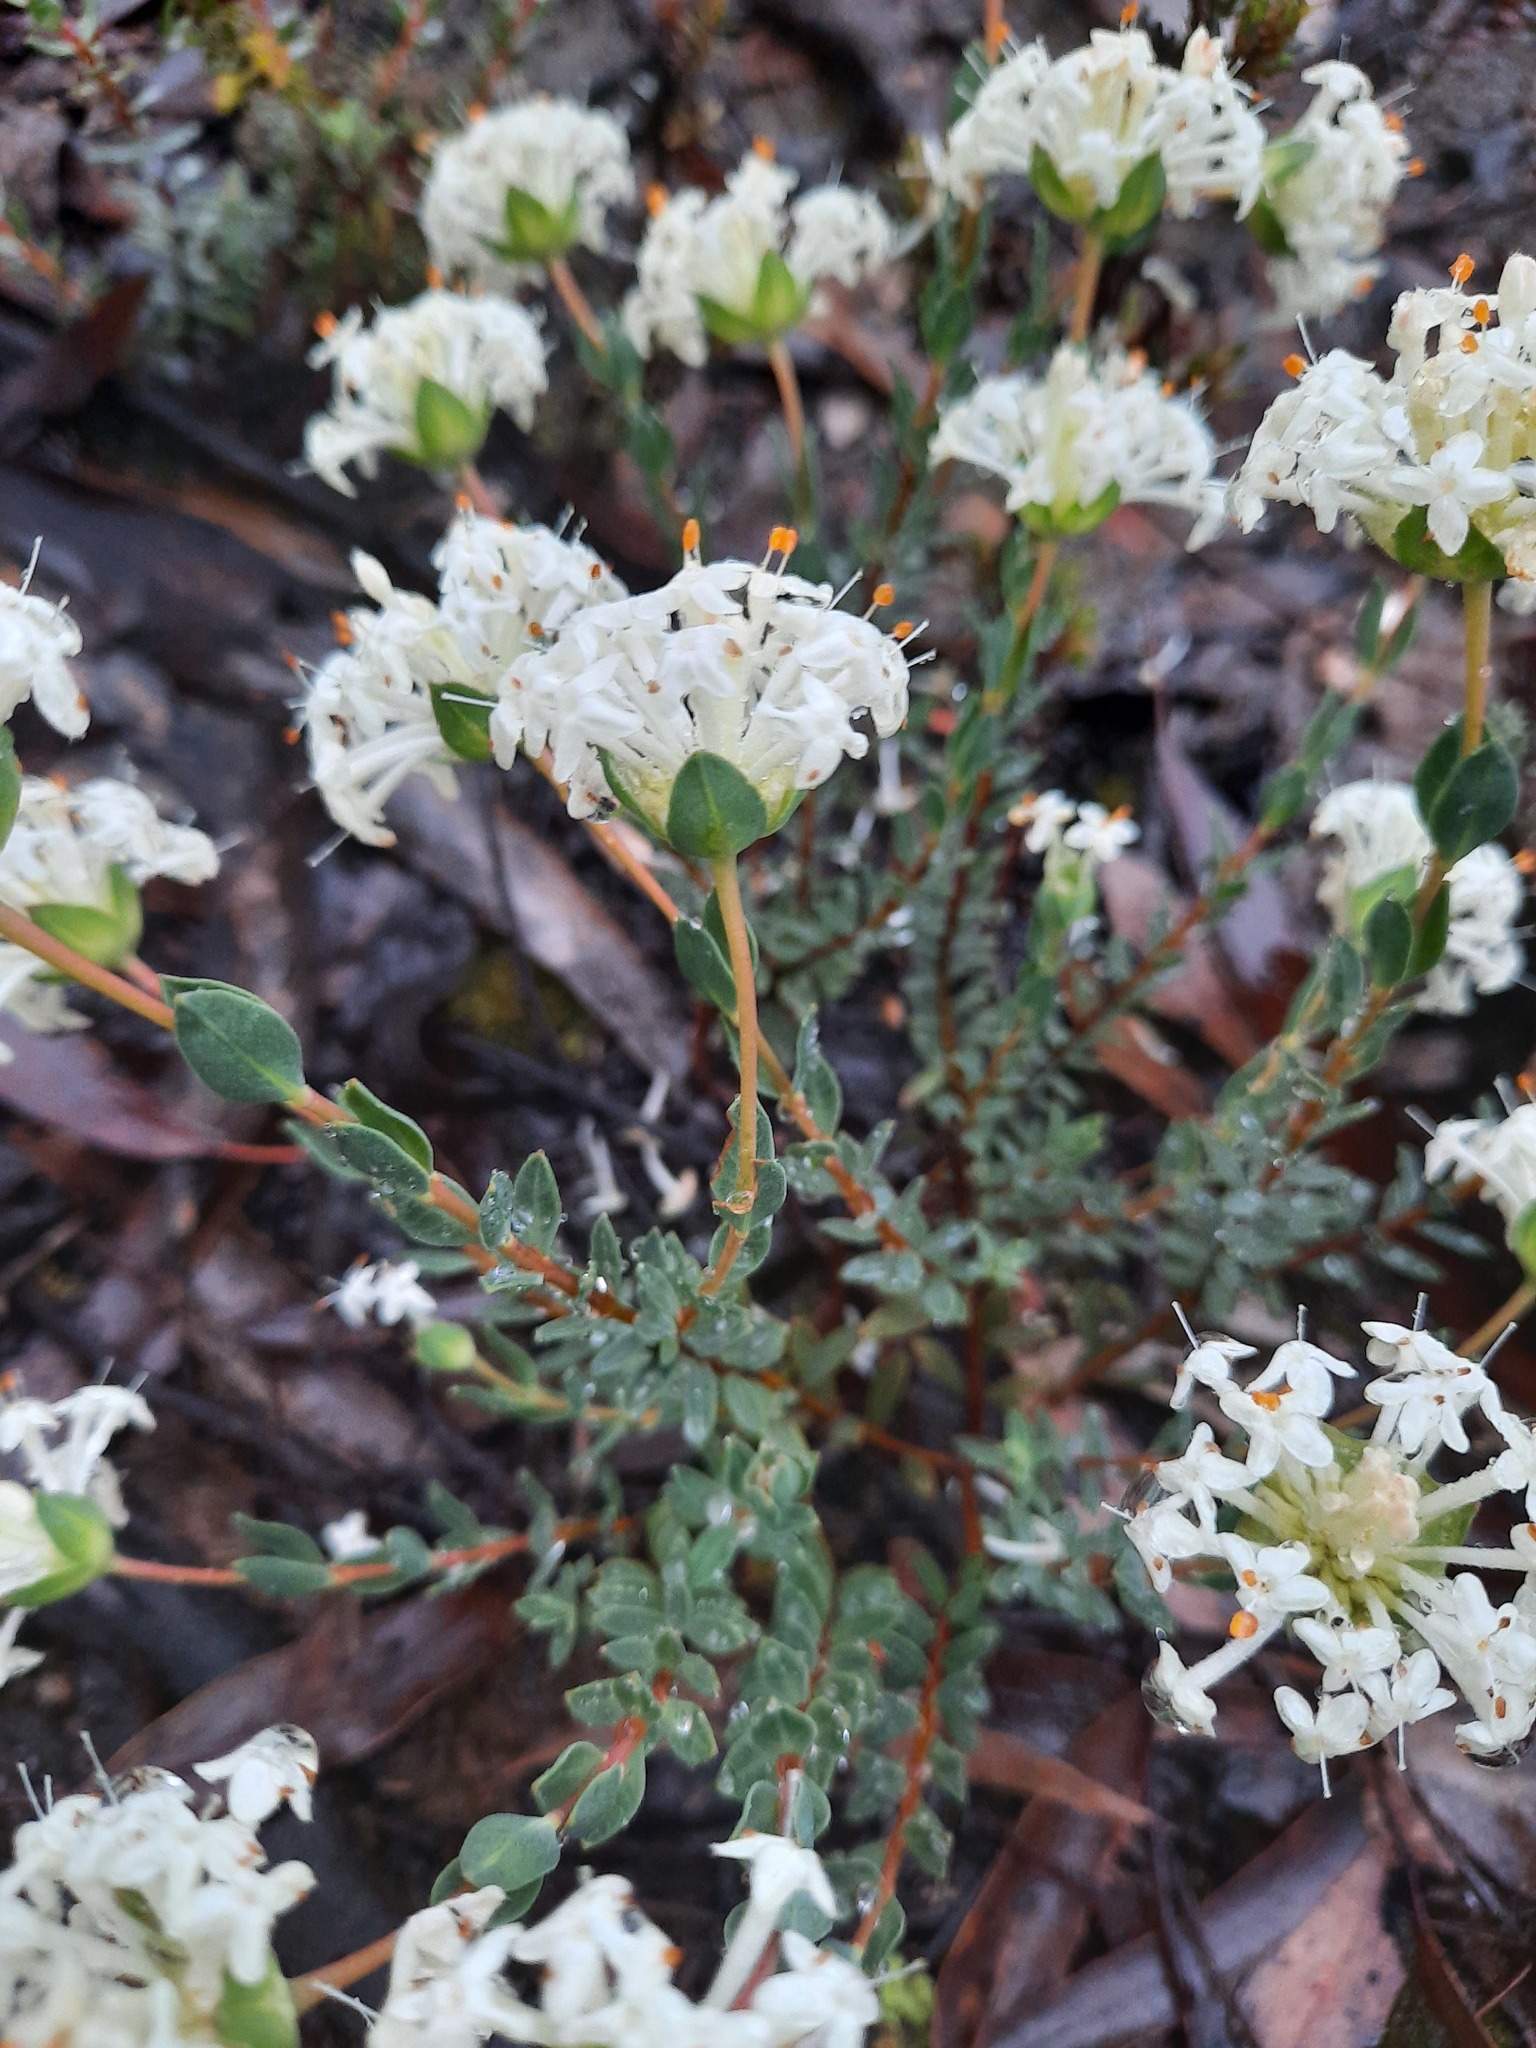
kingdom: Plantae
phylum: Tracheophyta
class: Magnoliopsida
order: Malvales
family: Thymelaeaceae
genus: Pimelea
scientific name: Pimelea humilis
